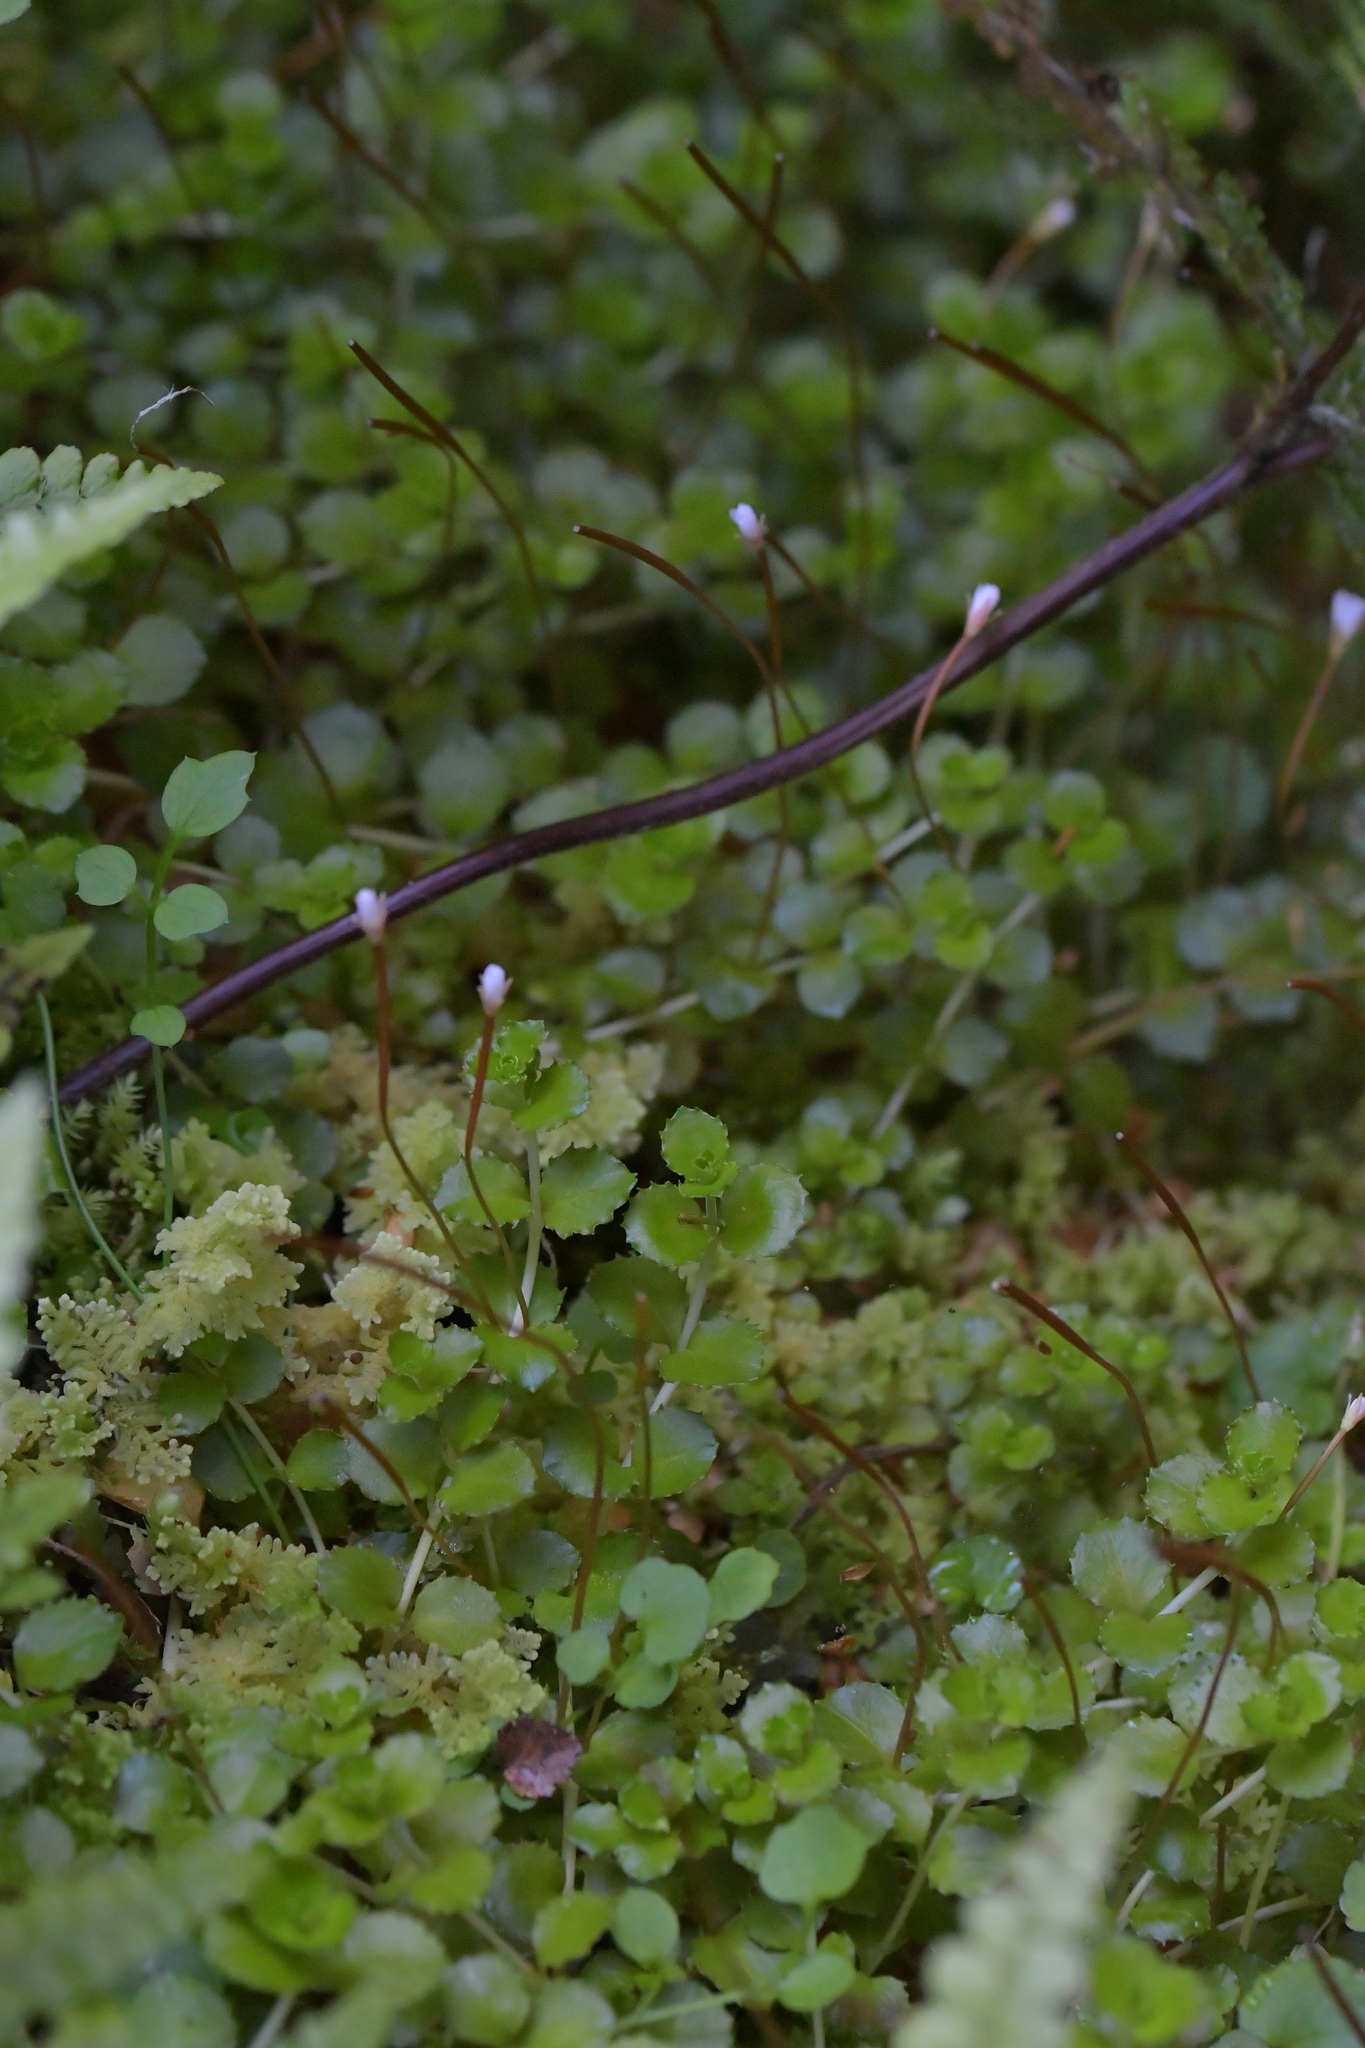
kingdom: Plantae
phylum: Tracheophyta
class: Magnoliopsida
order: Myrtales
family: Onagraceae
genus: Epilobium
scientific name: Epilobium pedunculare
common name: Rockery willowherb
